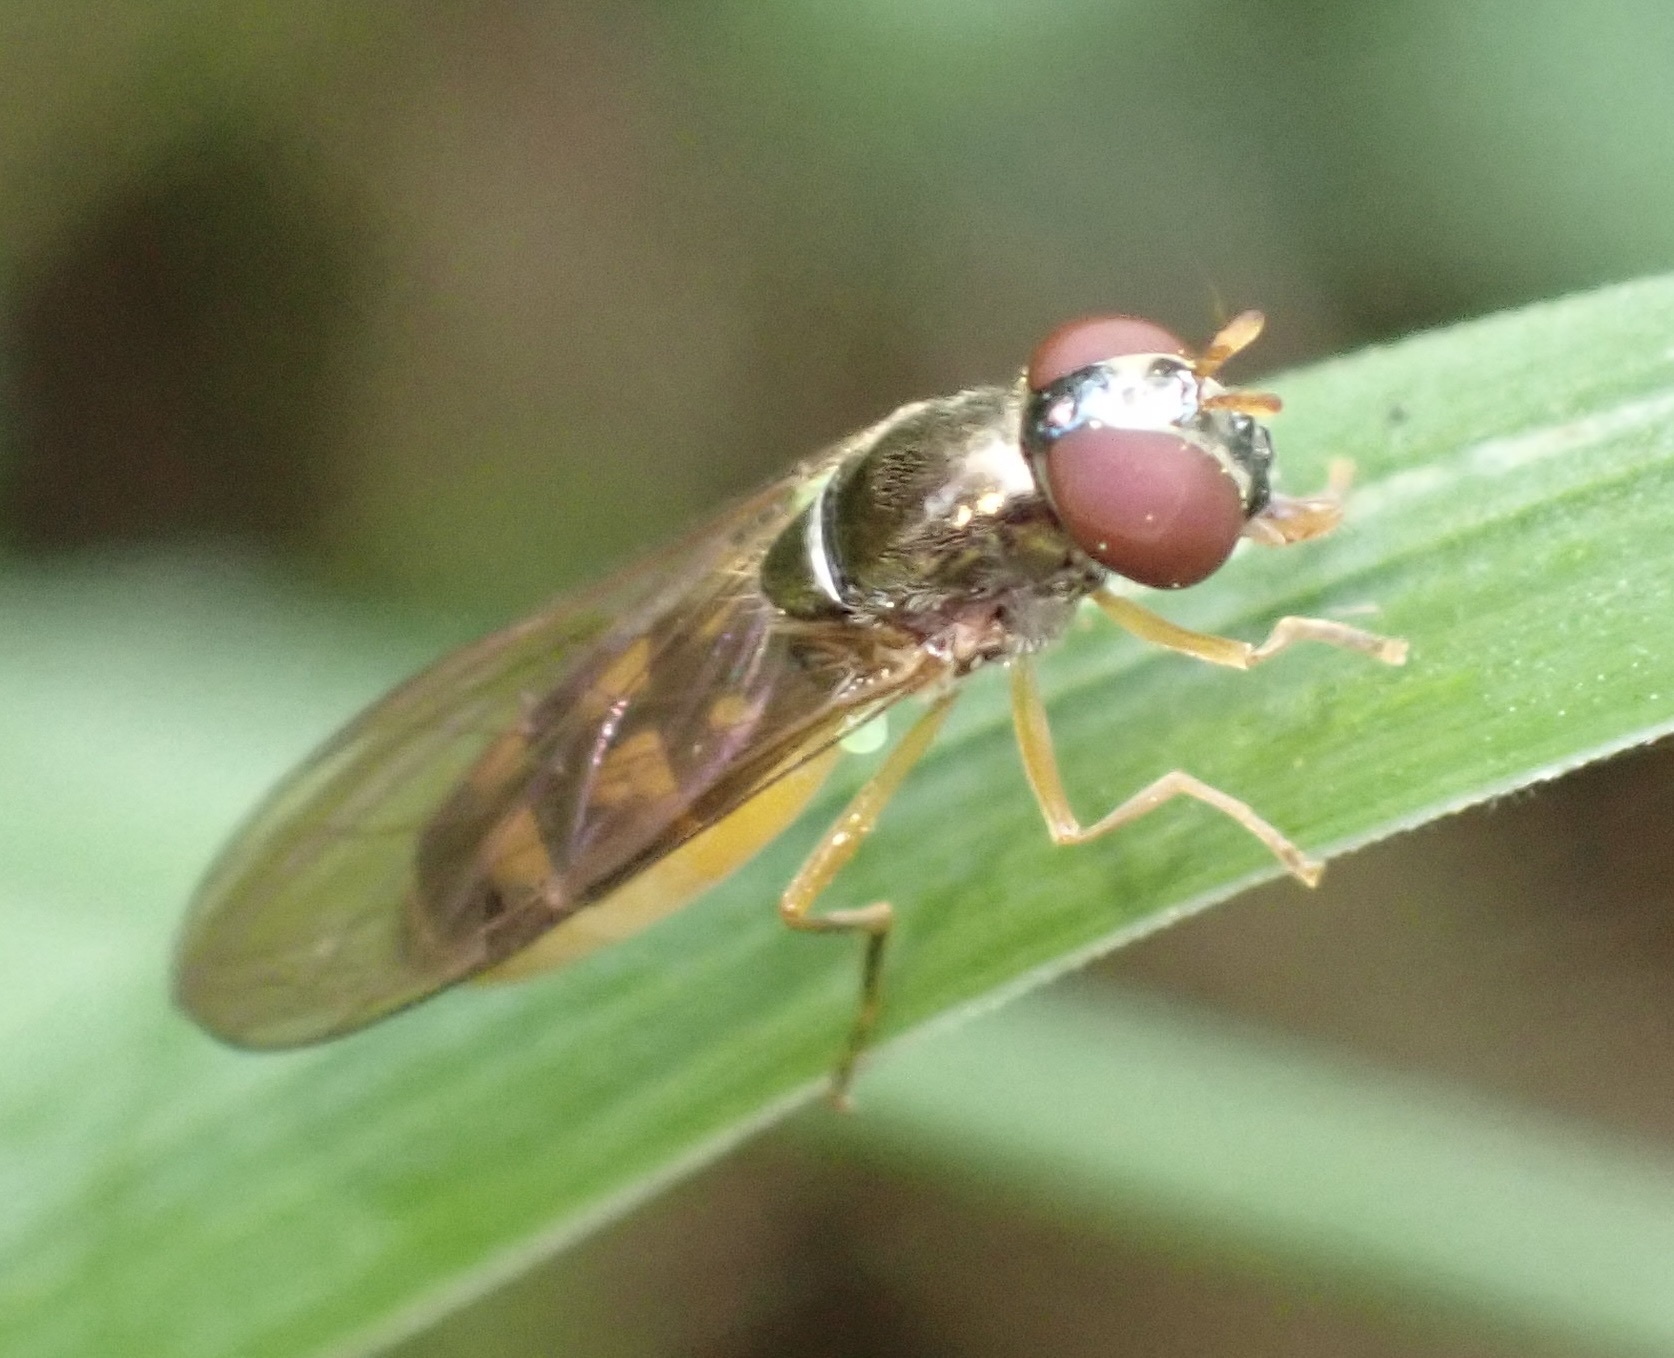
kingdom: Animalia
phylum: Arthropoda
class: Insecta
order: Diptera
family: Syrphidae
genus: Melanostoma
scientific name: Melanostoma scalare
